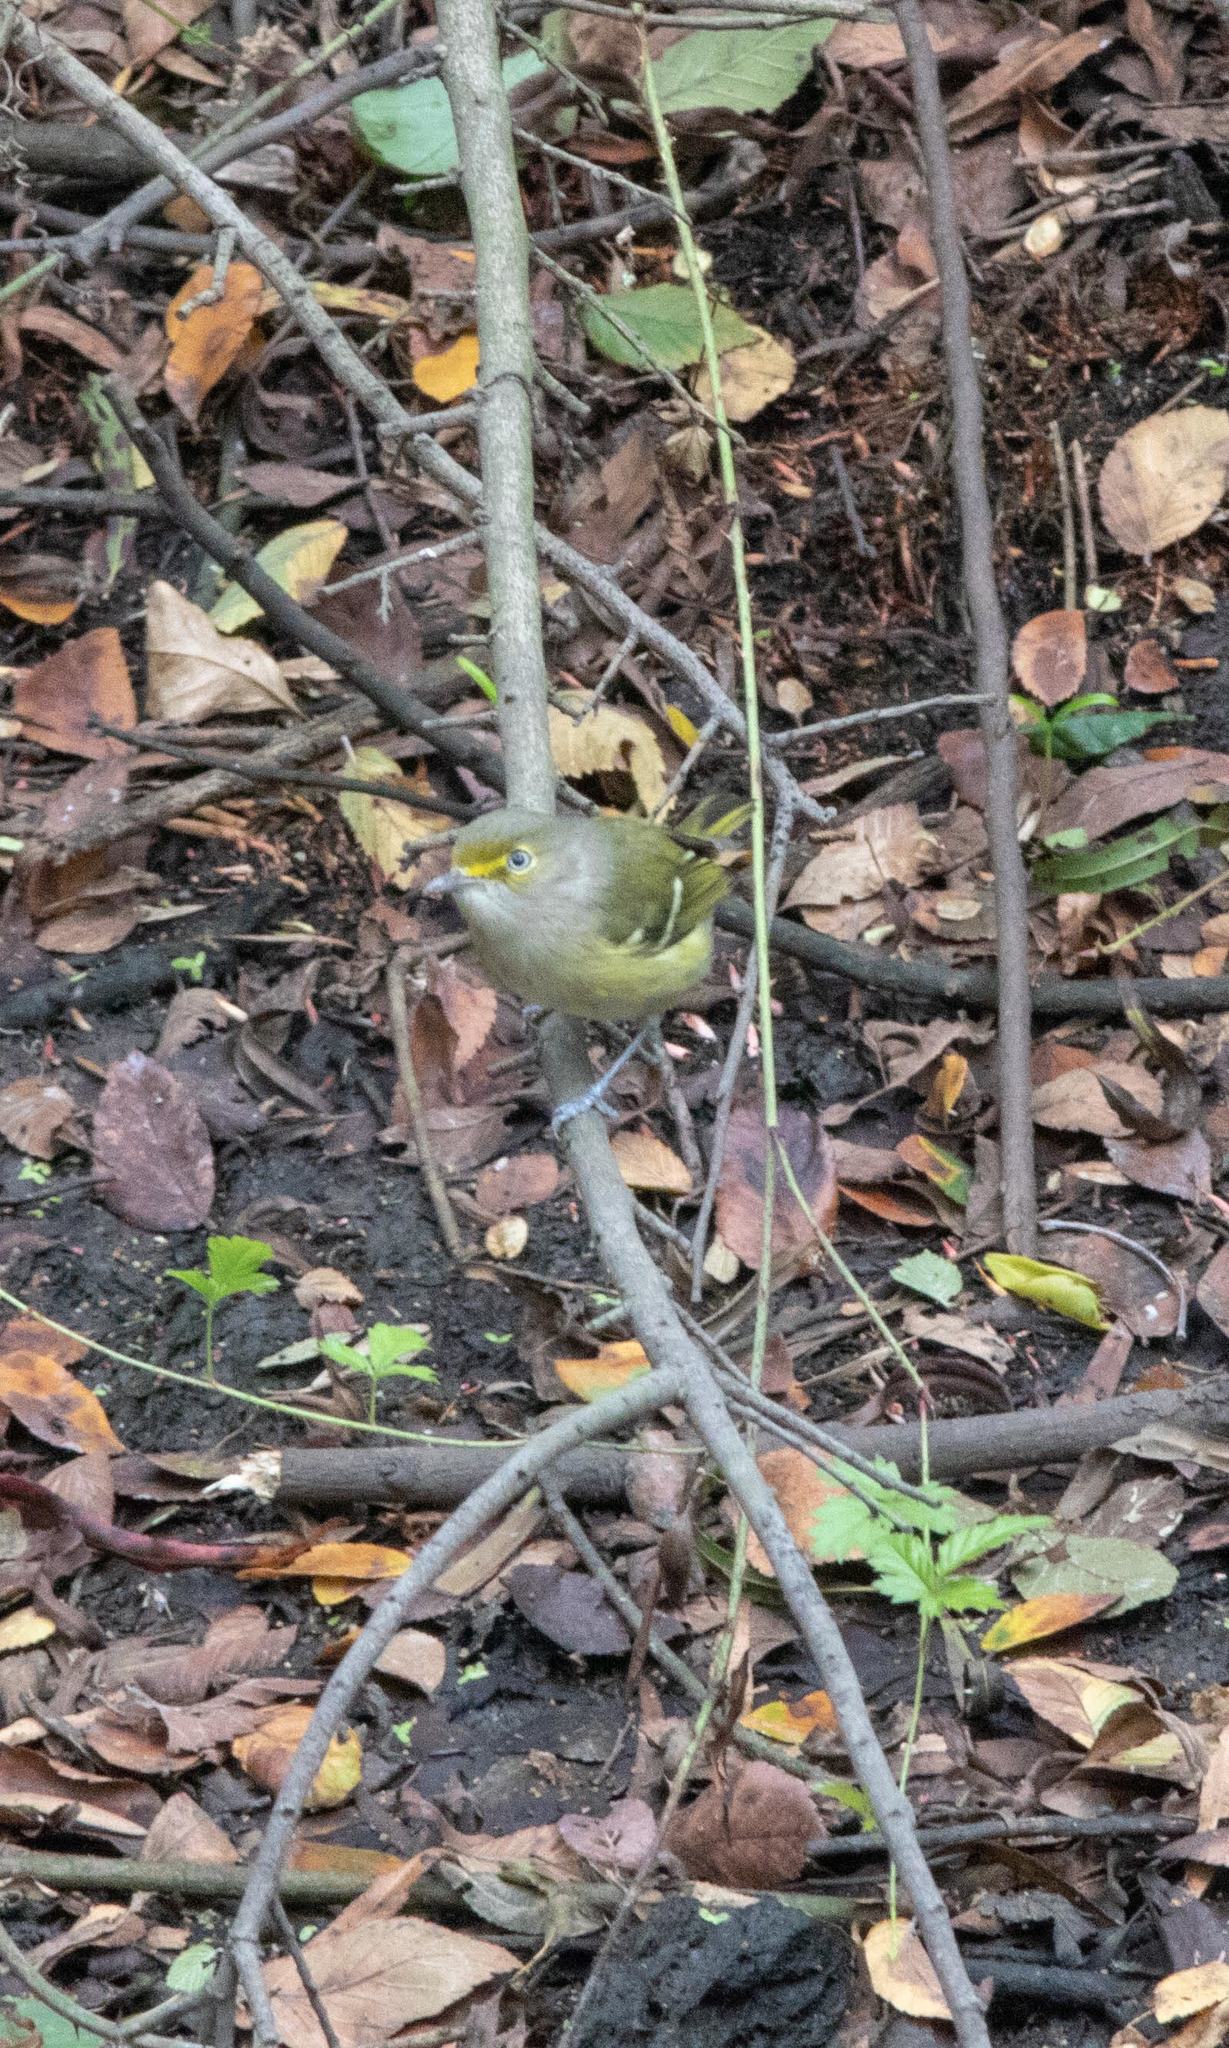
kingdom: Animalia
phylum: Chordata
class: Aves
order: Passeriformes
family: Vireonidae
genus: Vireo
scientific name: Vireo griseus
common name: White-eyed vireo
